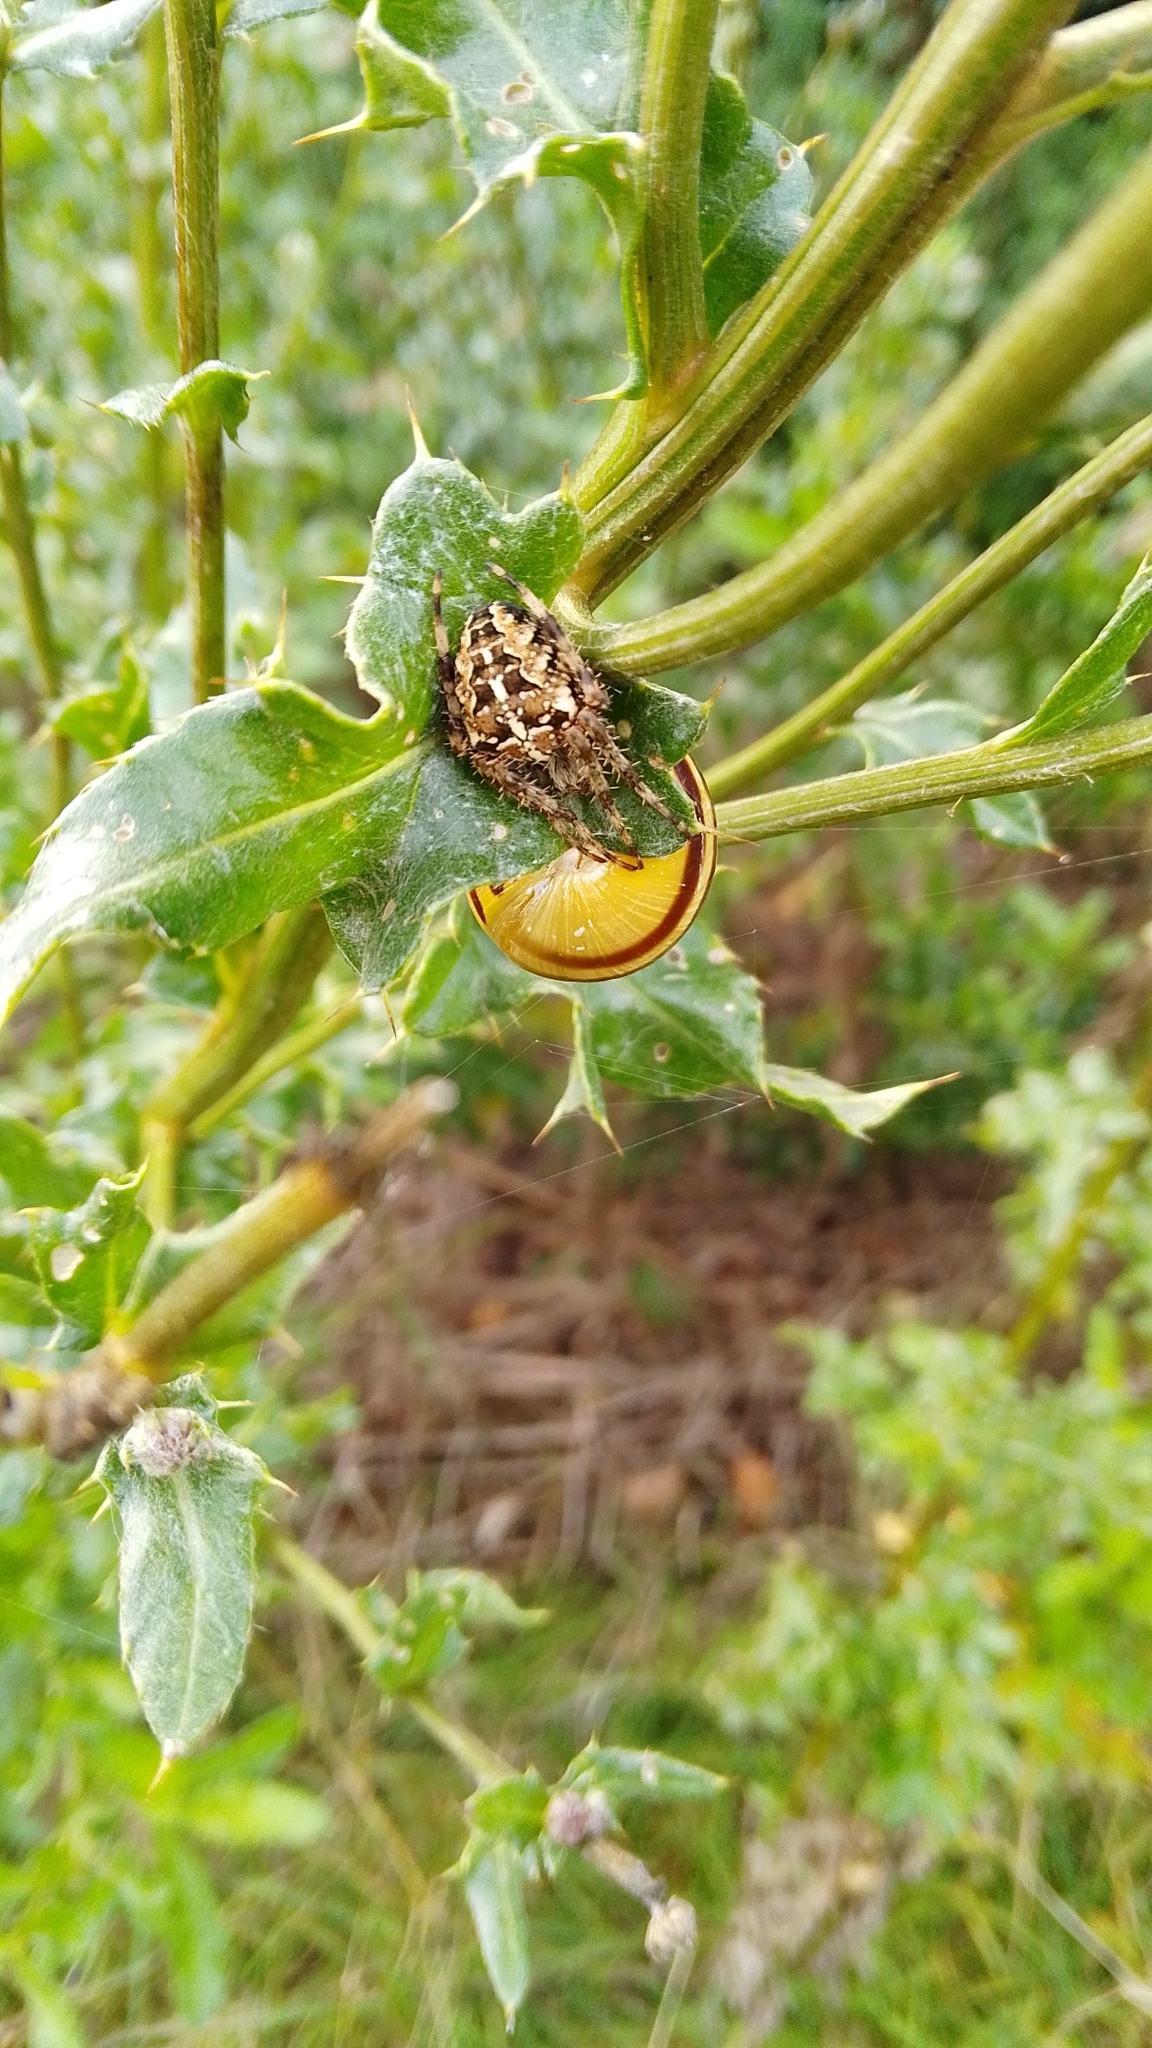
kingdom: Animalia
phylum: Arthropoda
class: Arachnida
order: Araneae
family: Araneidae
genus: Araneus
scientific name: Araneus diadematus
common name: Cross orbweaver
